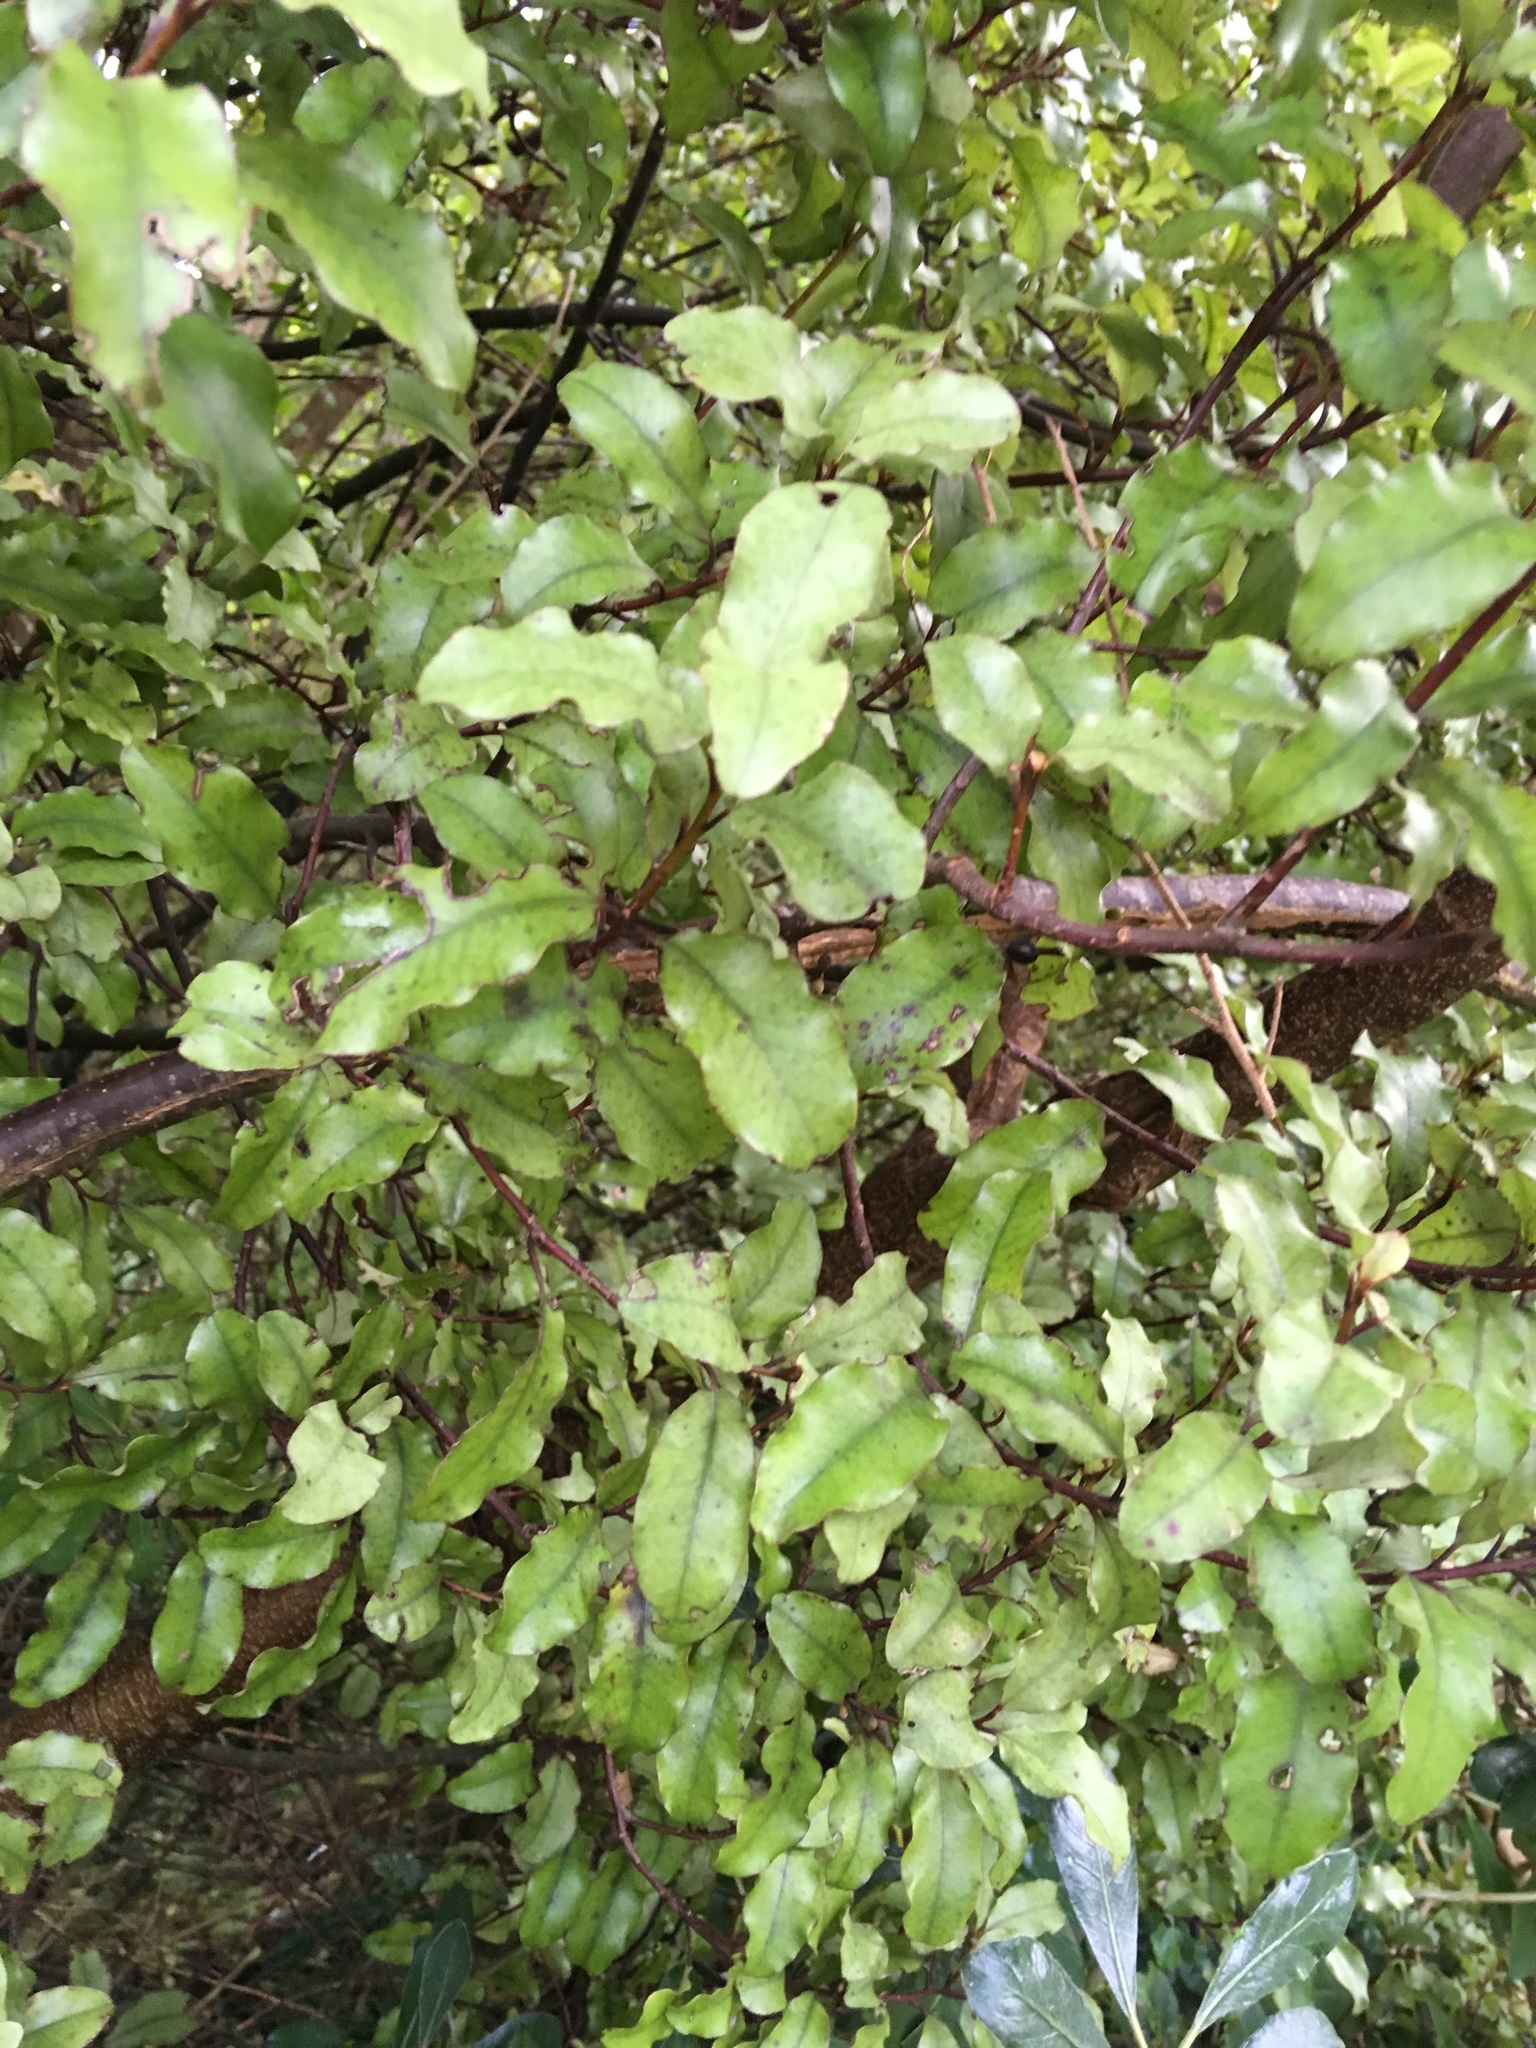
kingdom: Plantae
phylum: Tracheophyta
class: Magnoliopsida
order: Ericales
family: Primulaceae
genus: Myrsine
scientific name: Myrsine australis
